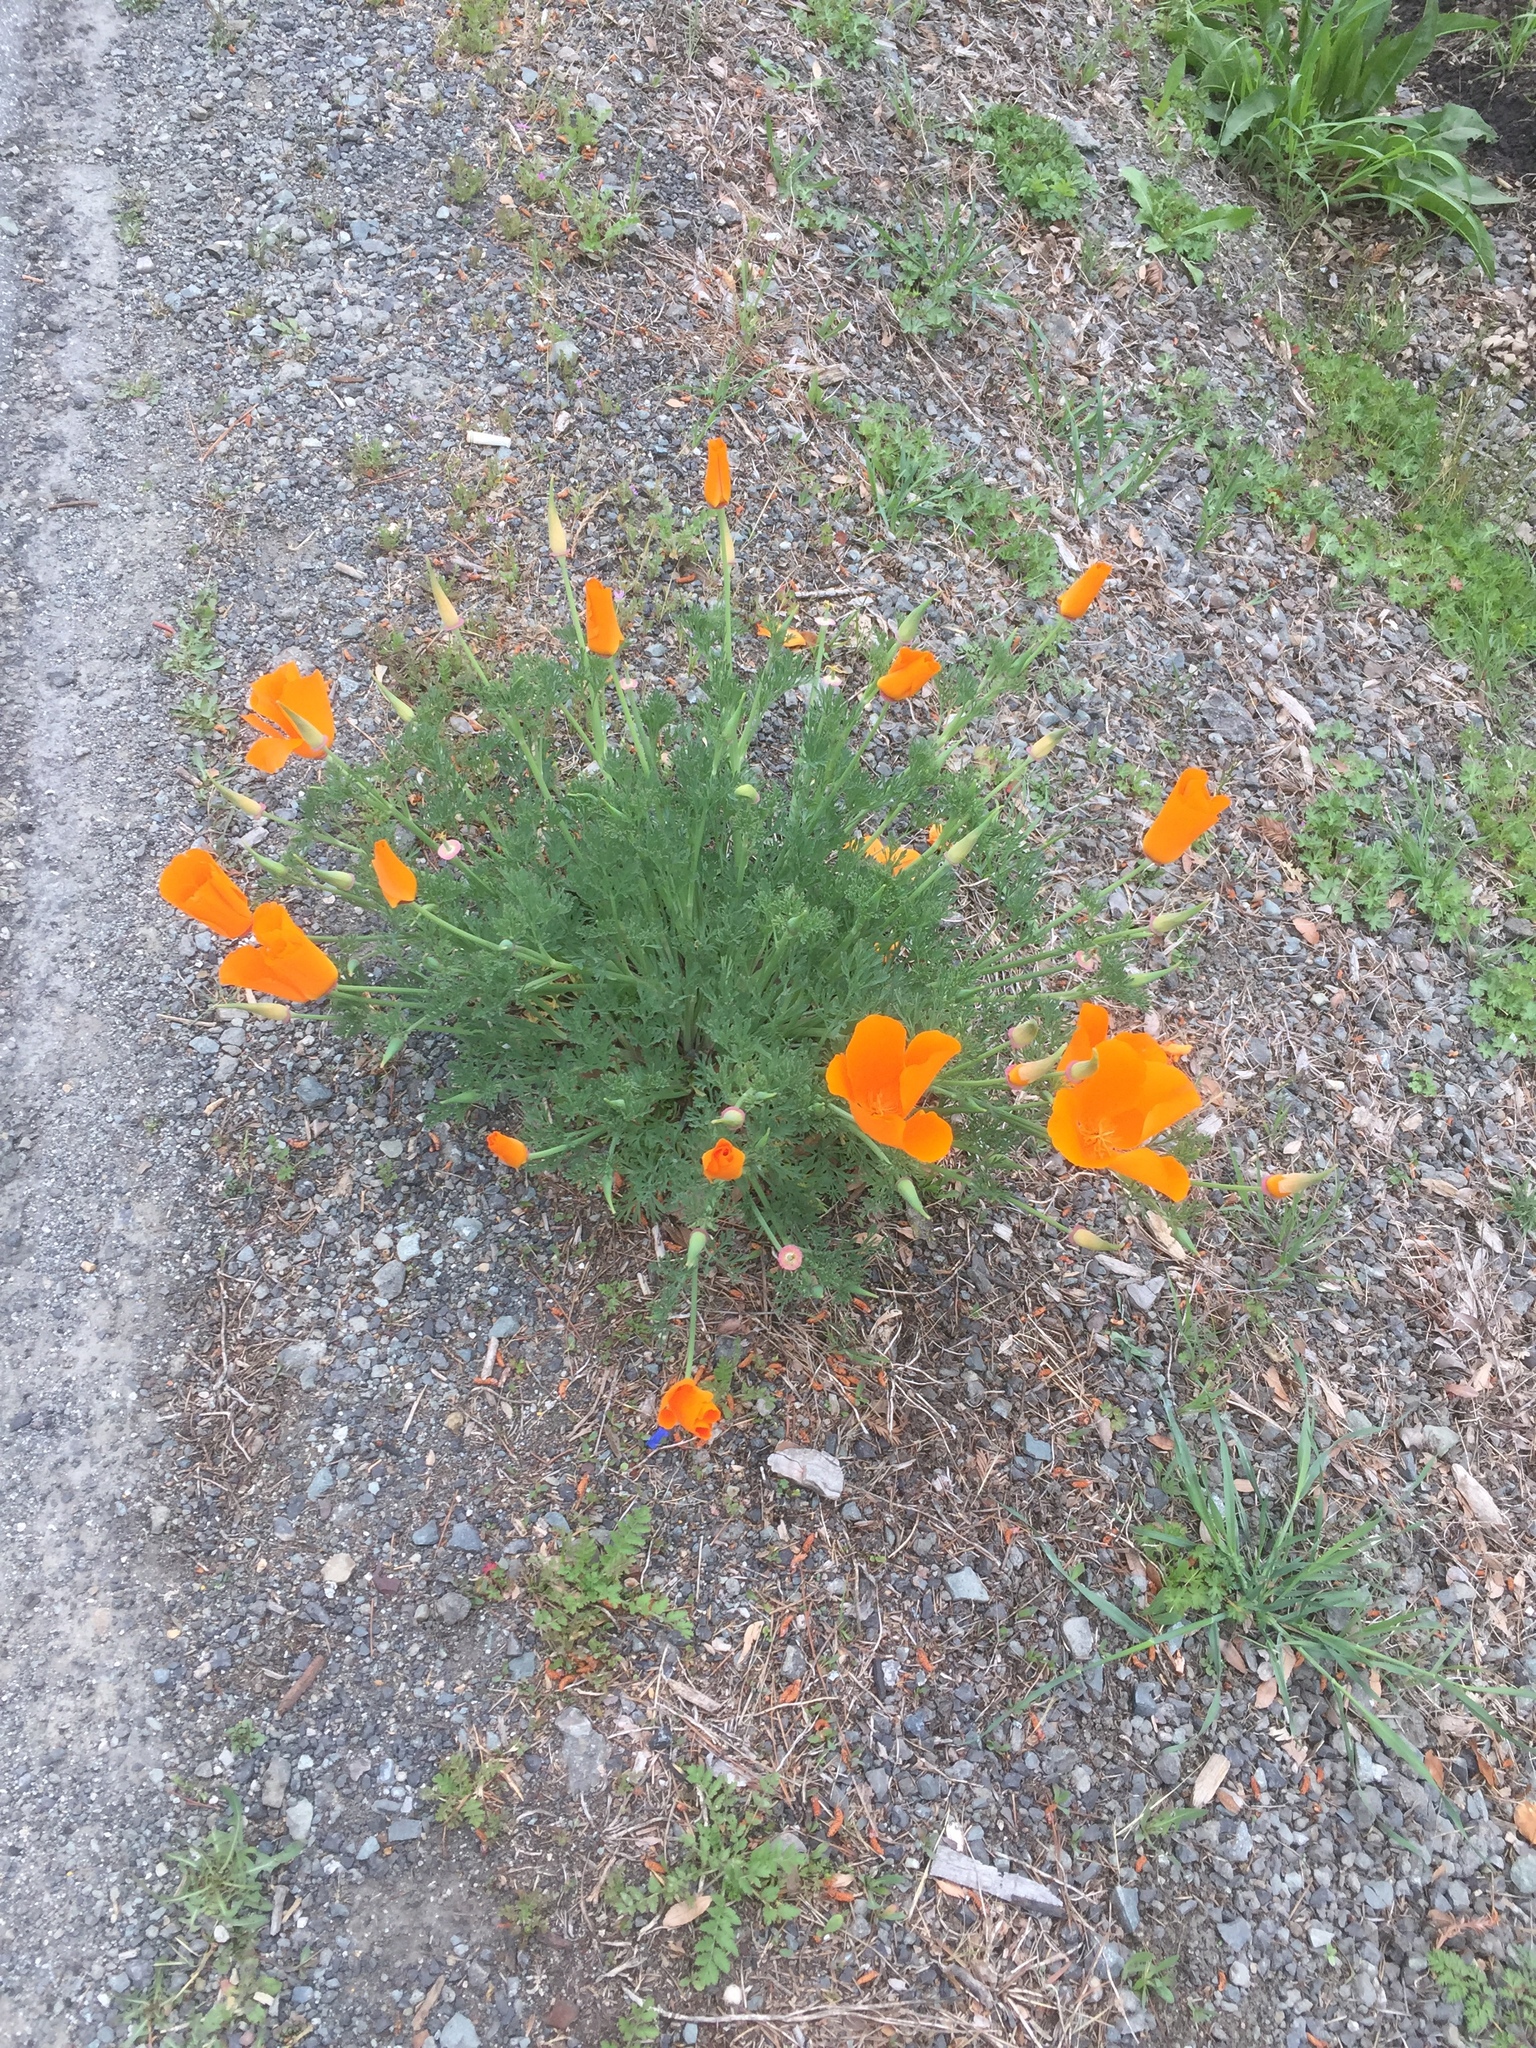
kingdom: Plantae
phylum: Tracheophyta
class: Magnoliopsida
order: Ranunculales
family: Papaveraceae
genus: Eschscholzia
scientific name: Eschscholzia californica
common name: California poppy
